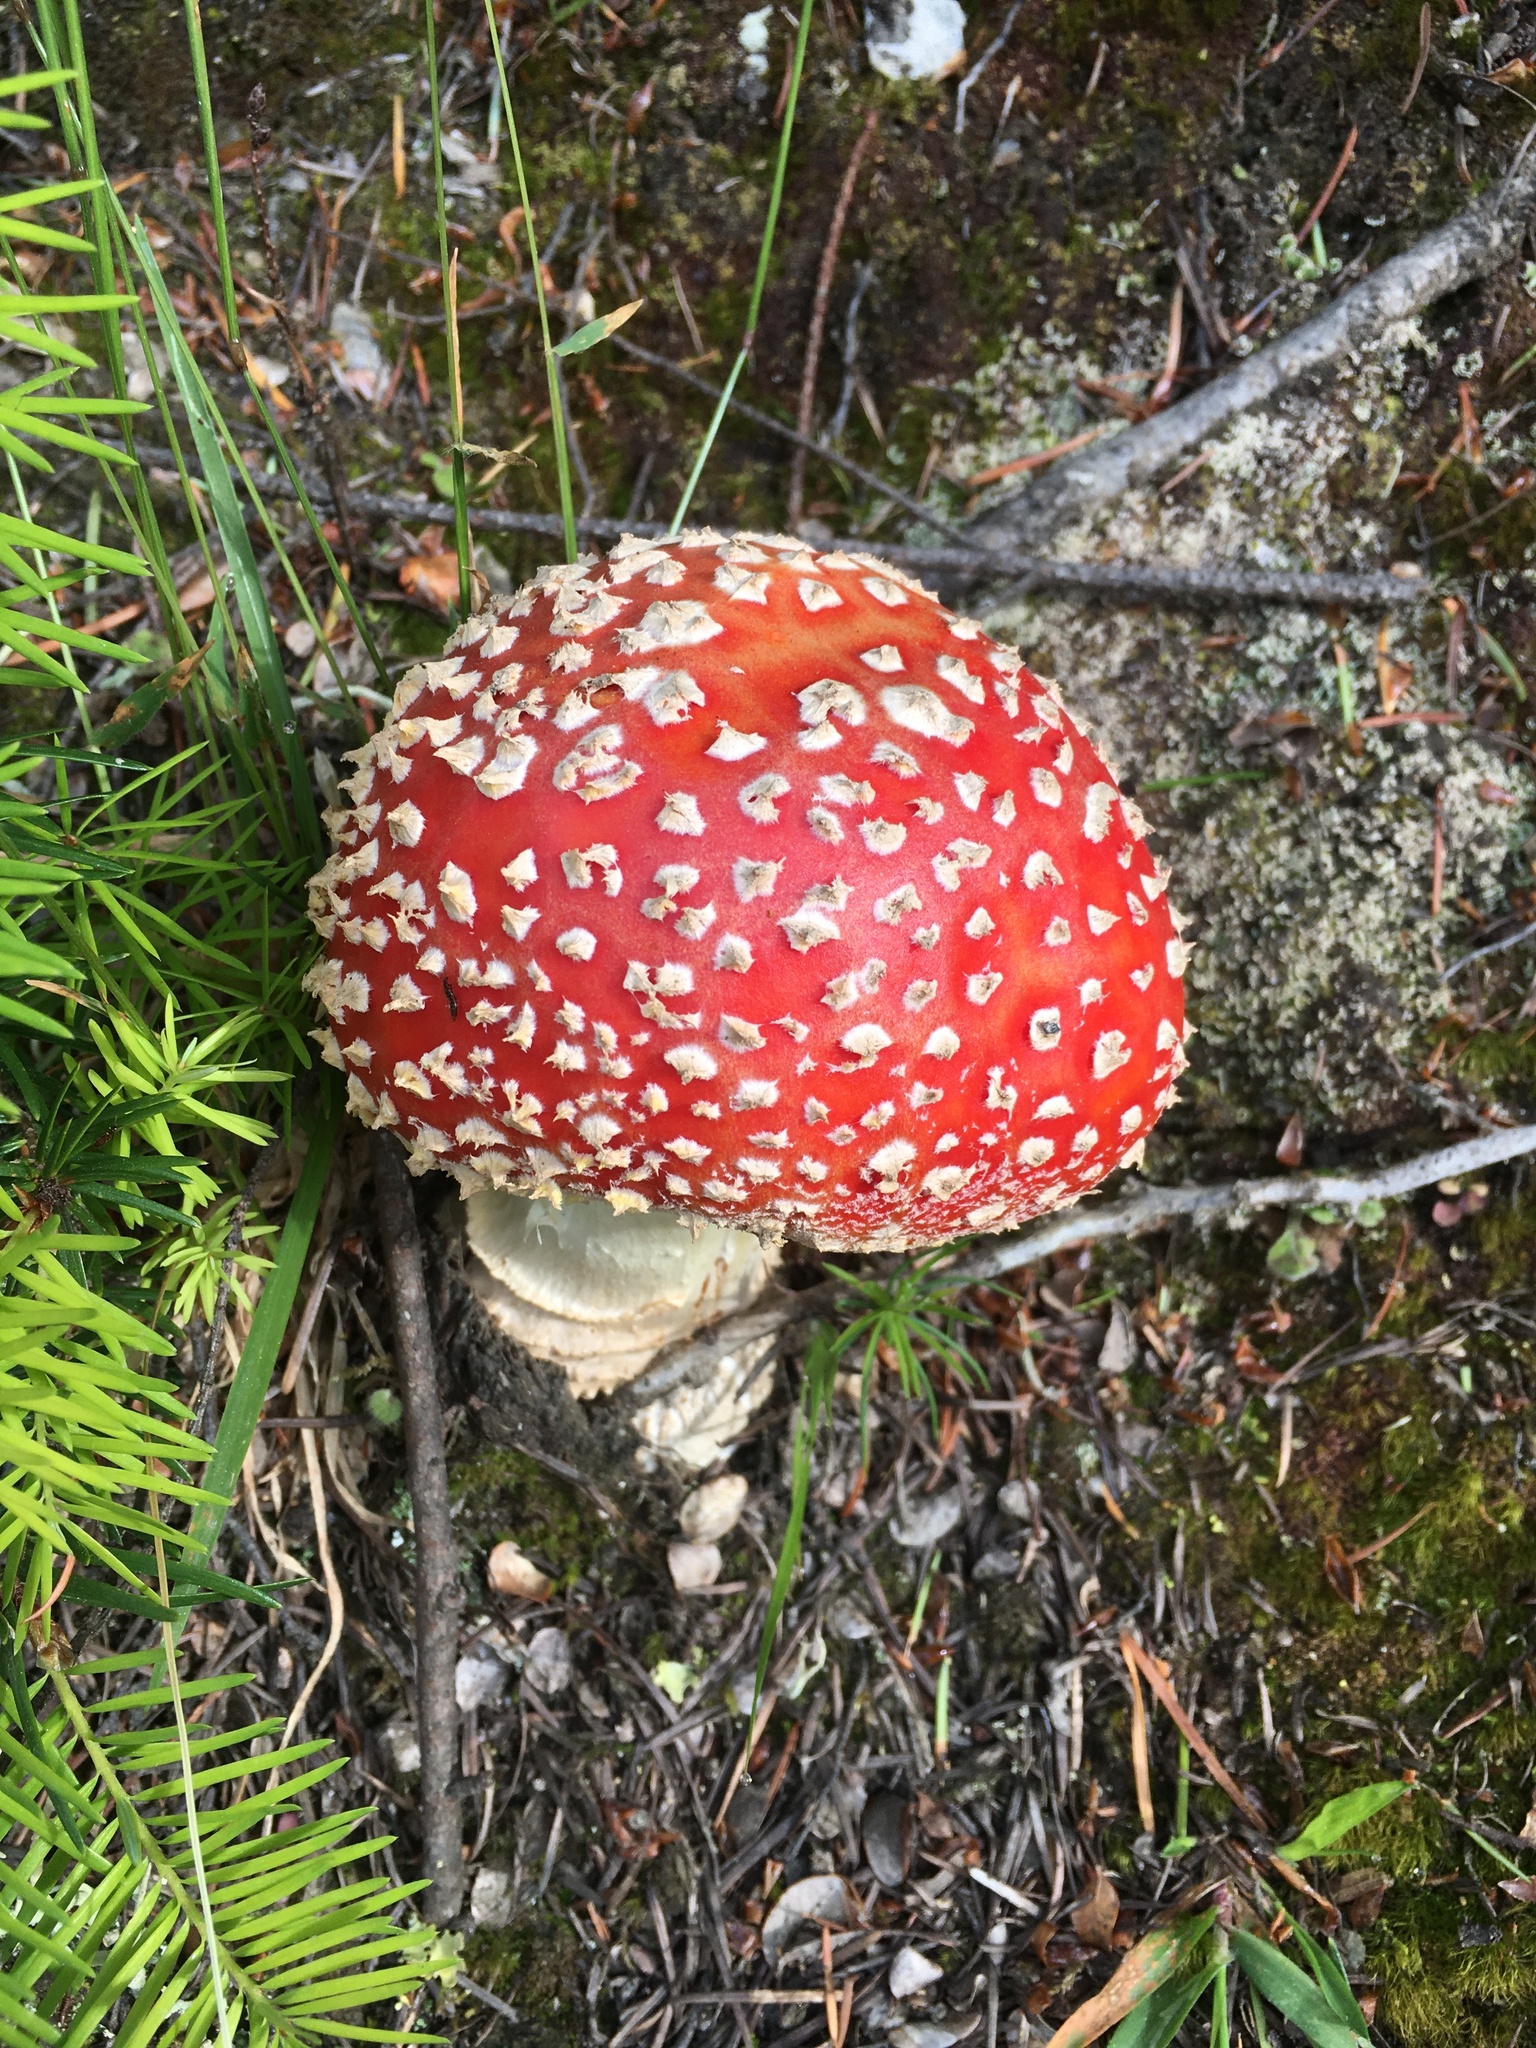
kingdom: Fungi
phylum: Basidiomycota
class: Agaricomycetes
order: Agaricales
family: Amanitaceae
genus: Amanita
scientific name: Amanita muscaria
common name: Fly agaric
